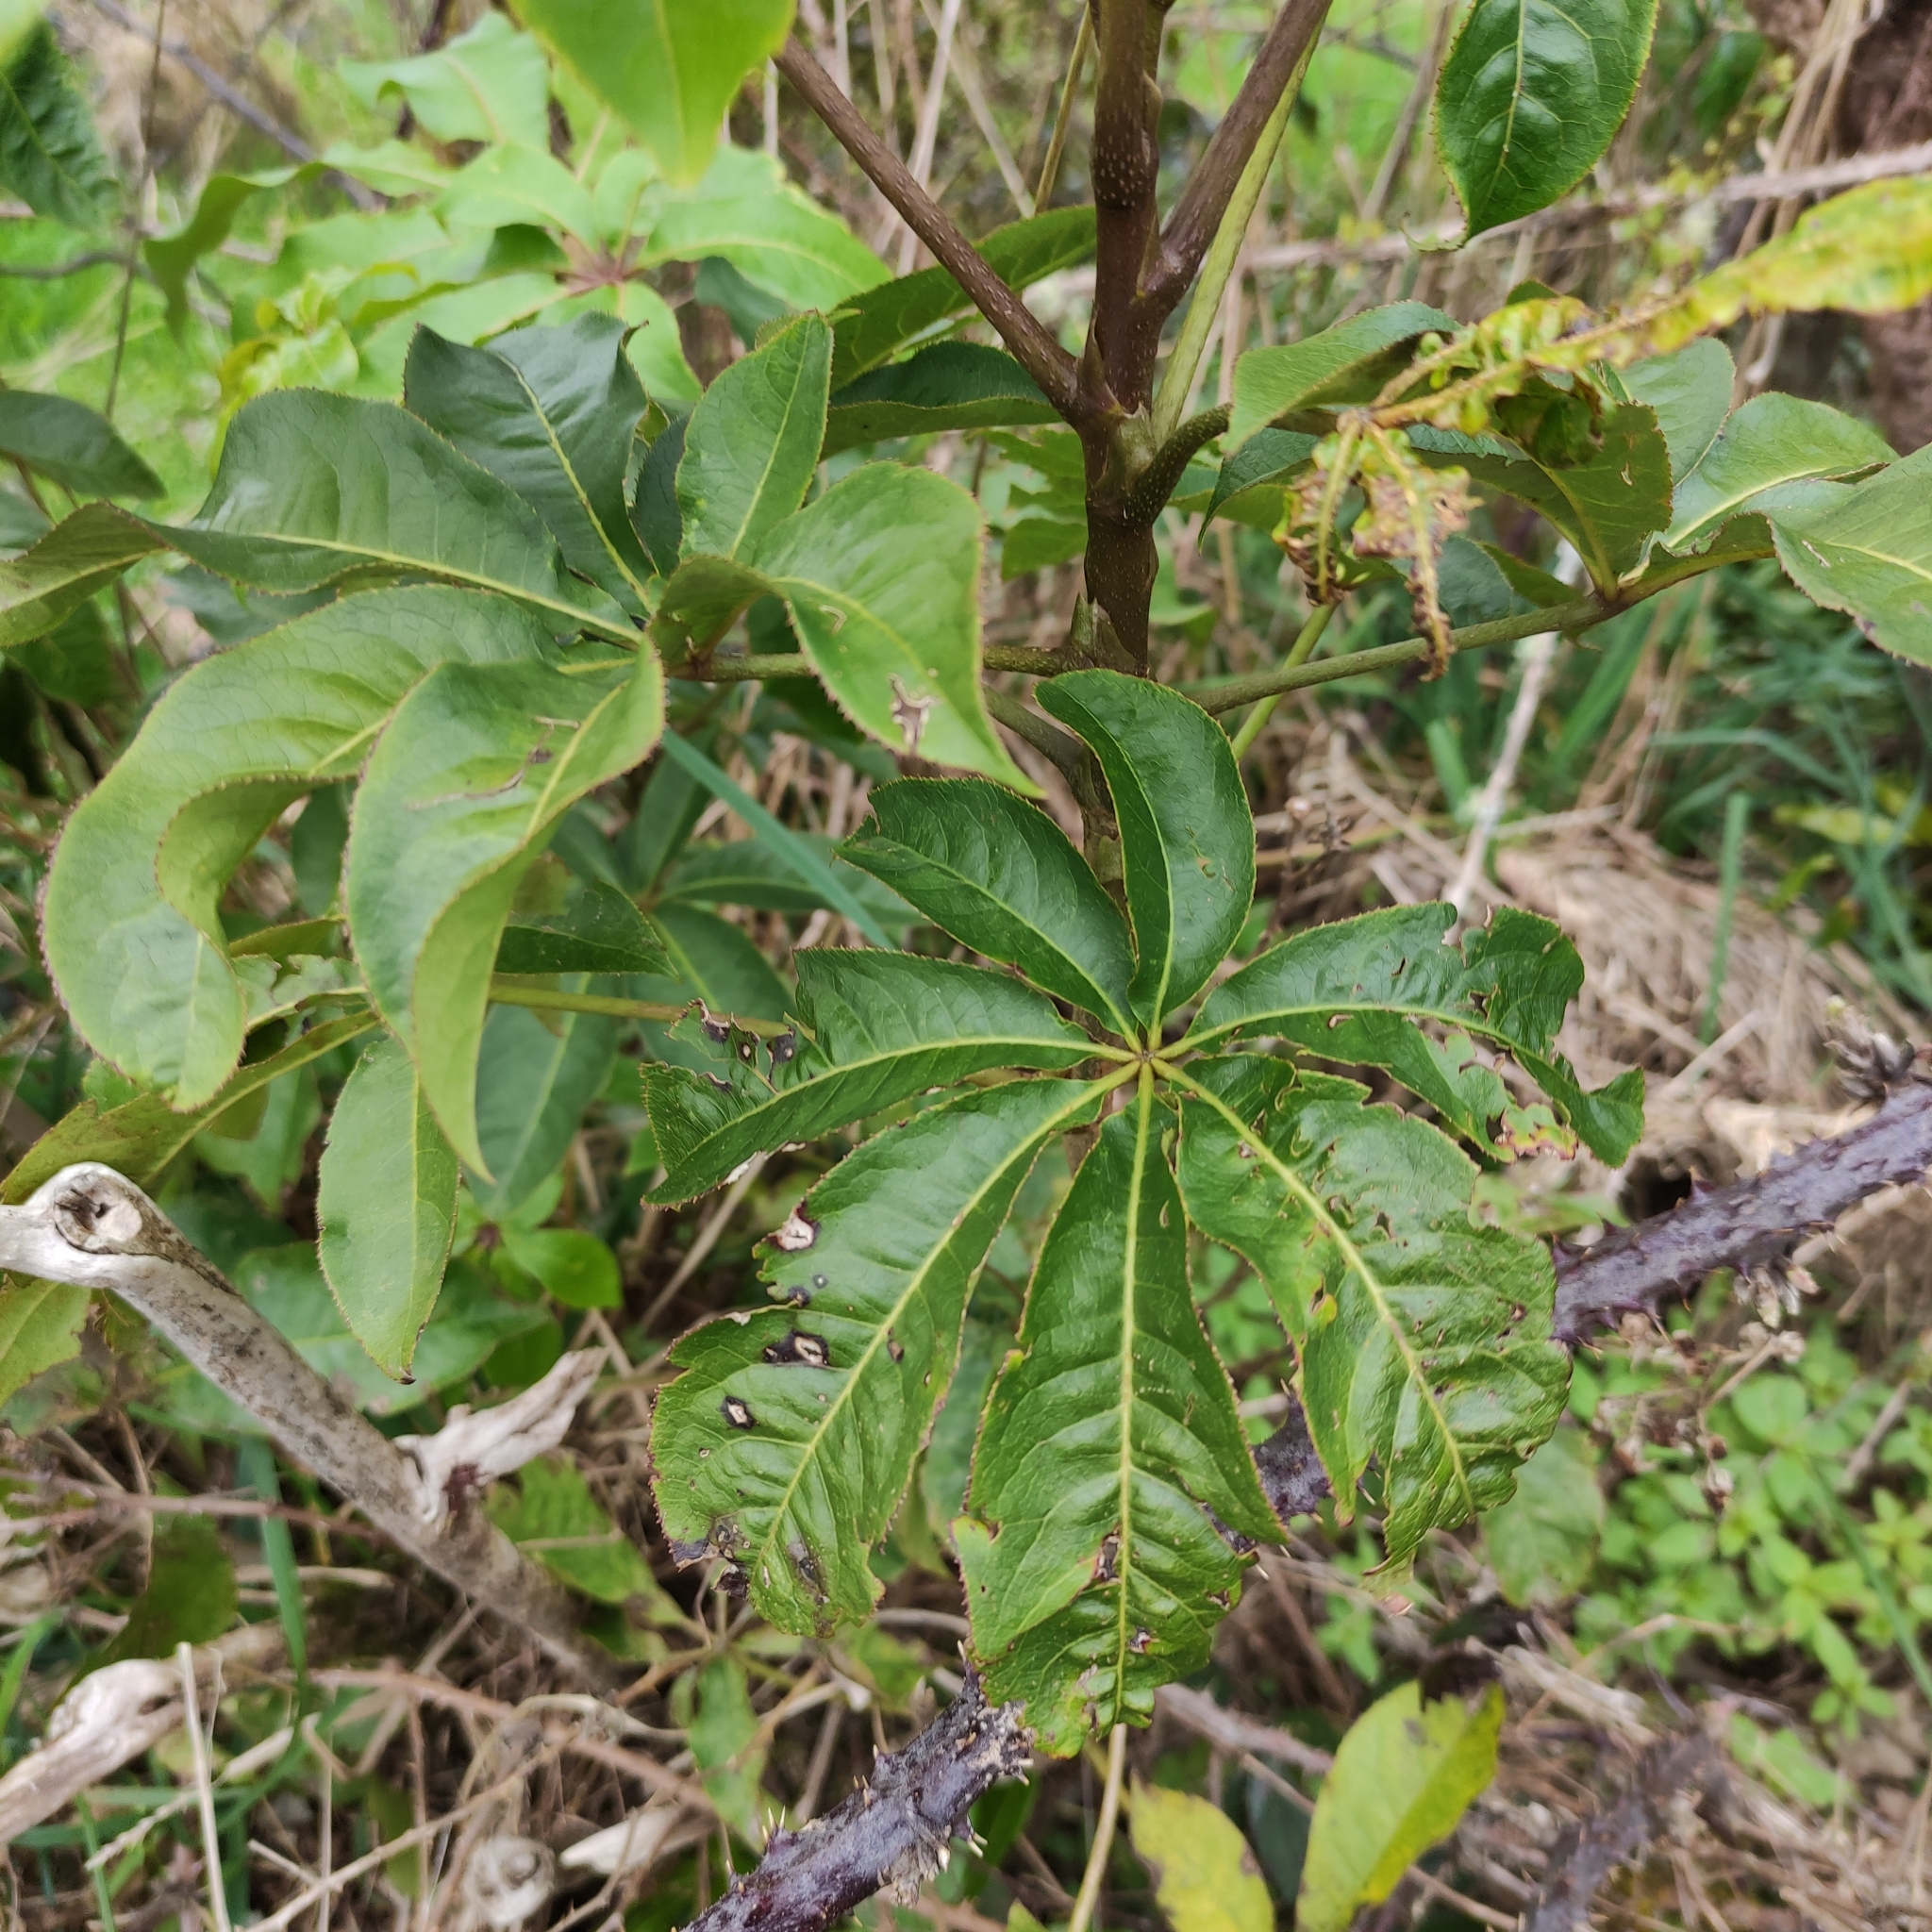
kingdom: Plantae
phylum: Tracheophyta
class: Magnoliopsida
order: Apiales
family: Araliaceae
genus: Schefflera
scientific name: Schefflera digitata
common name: Pate
